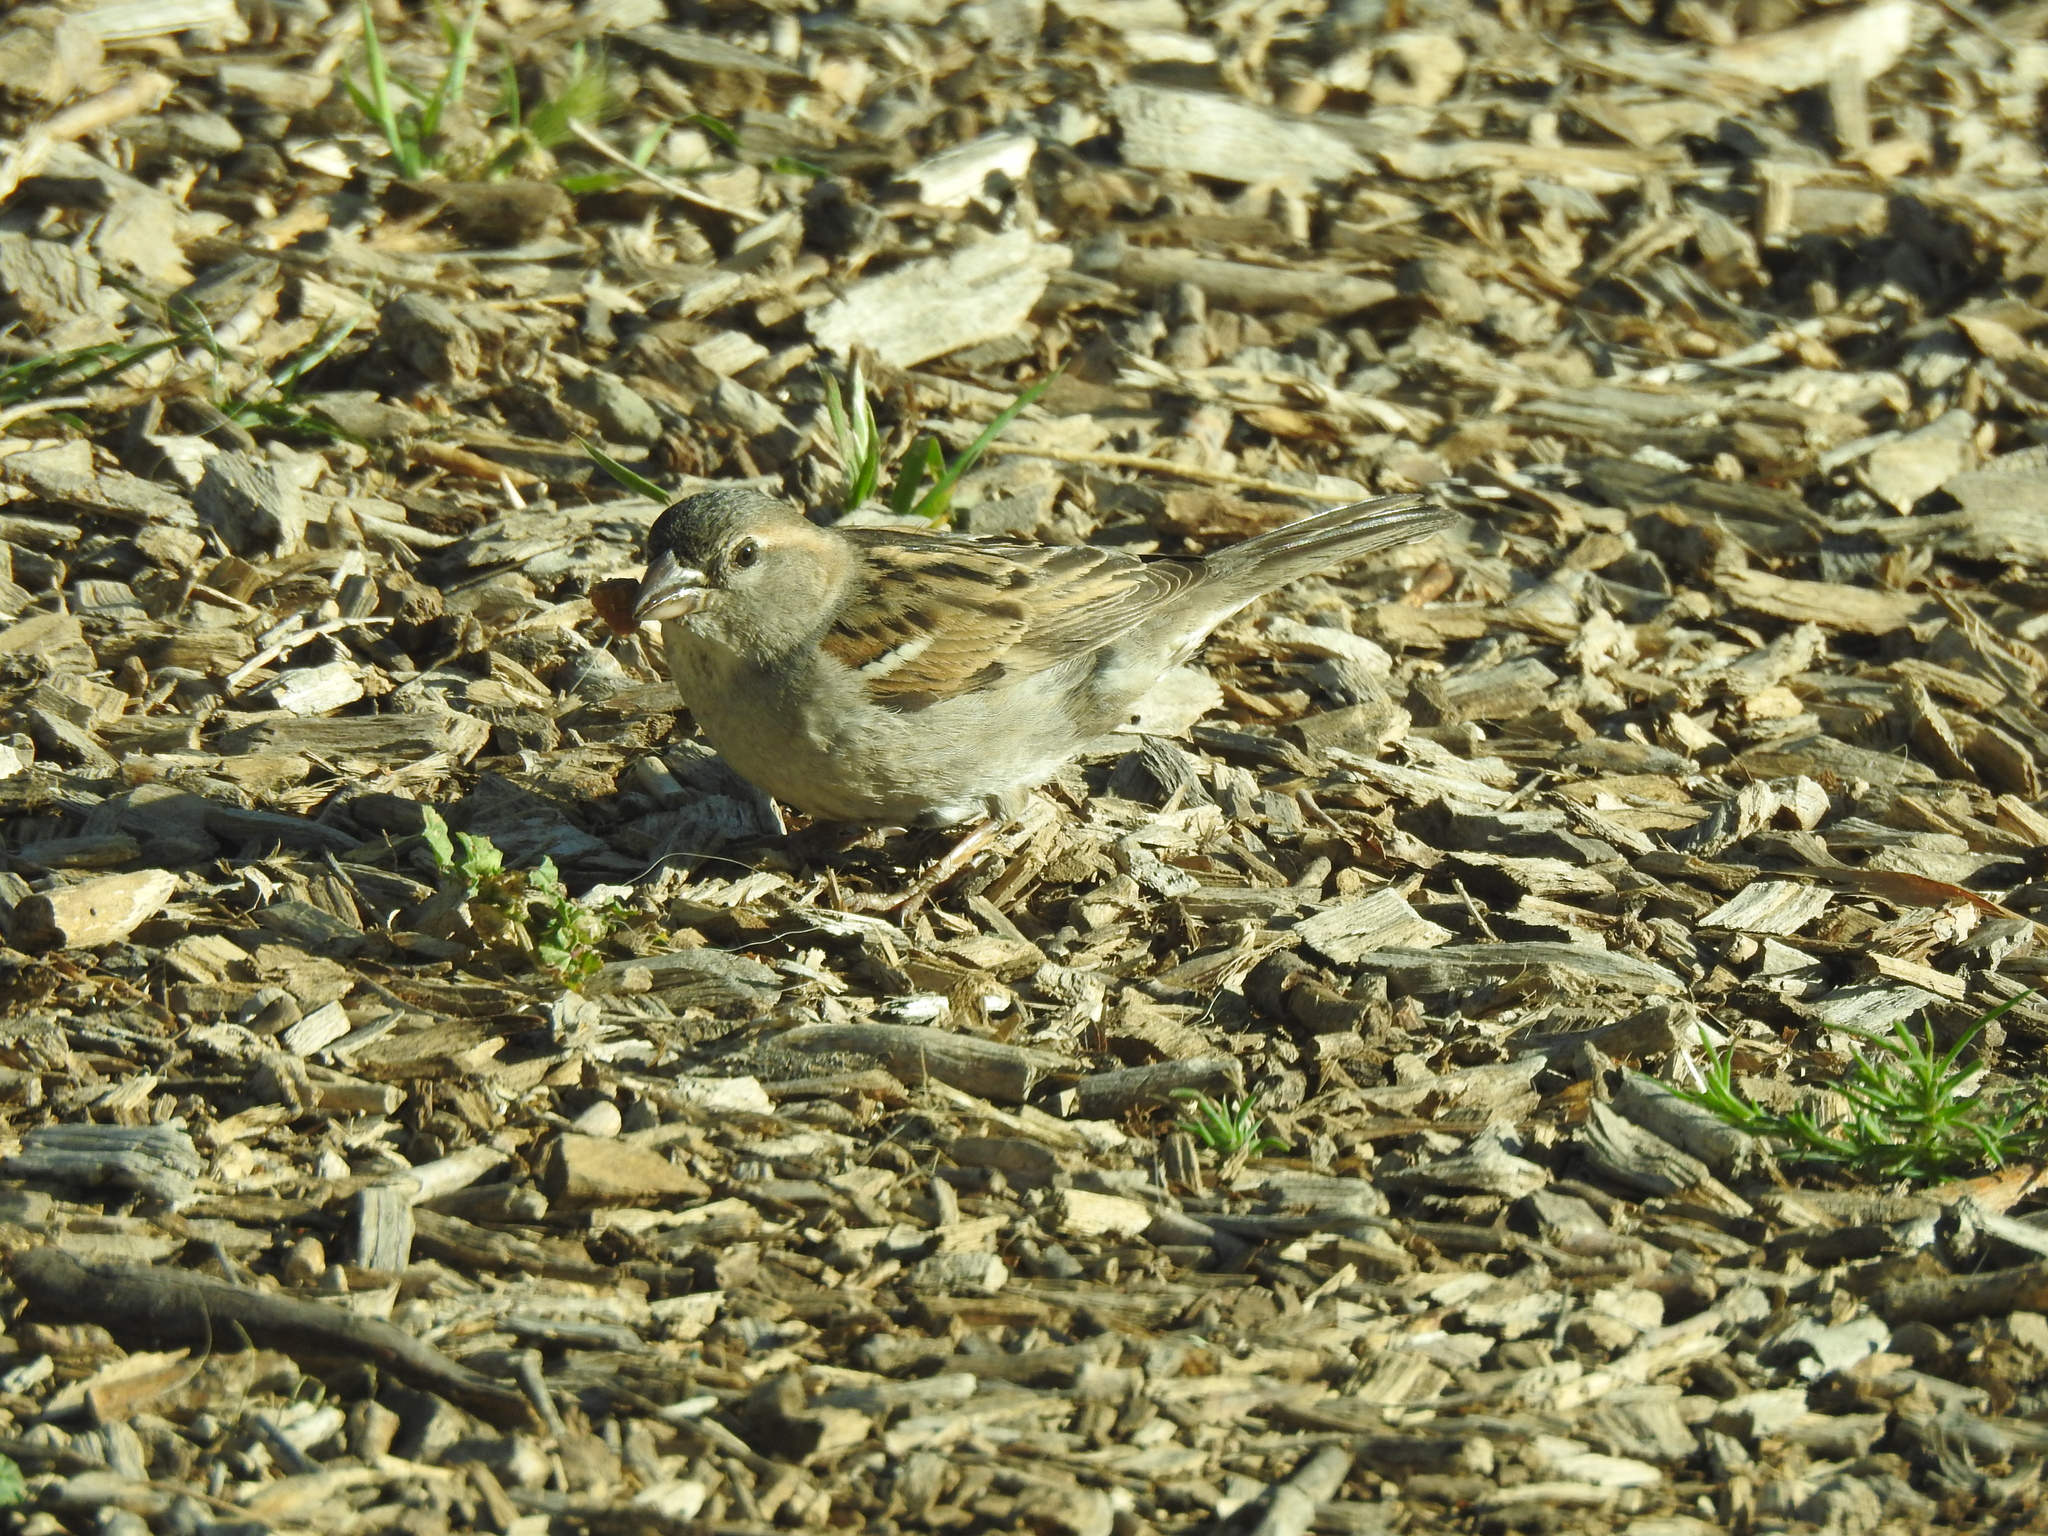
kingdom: Animalia
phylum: Chordata
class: Aves
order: Passeriformes
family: Passeridae
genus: Passer
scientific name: Passer domesticus
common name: House sparrow
